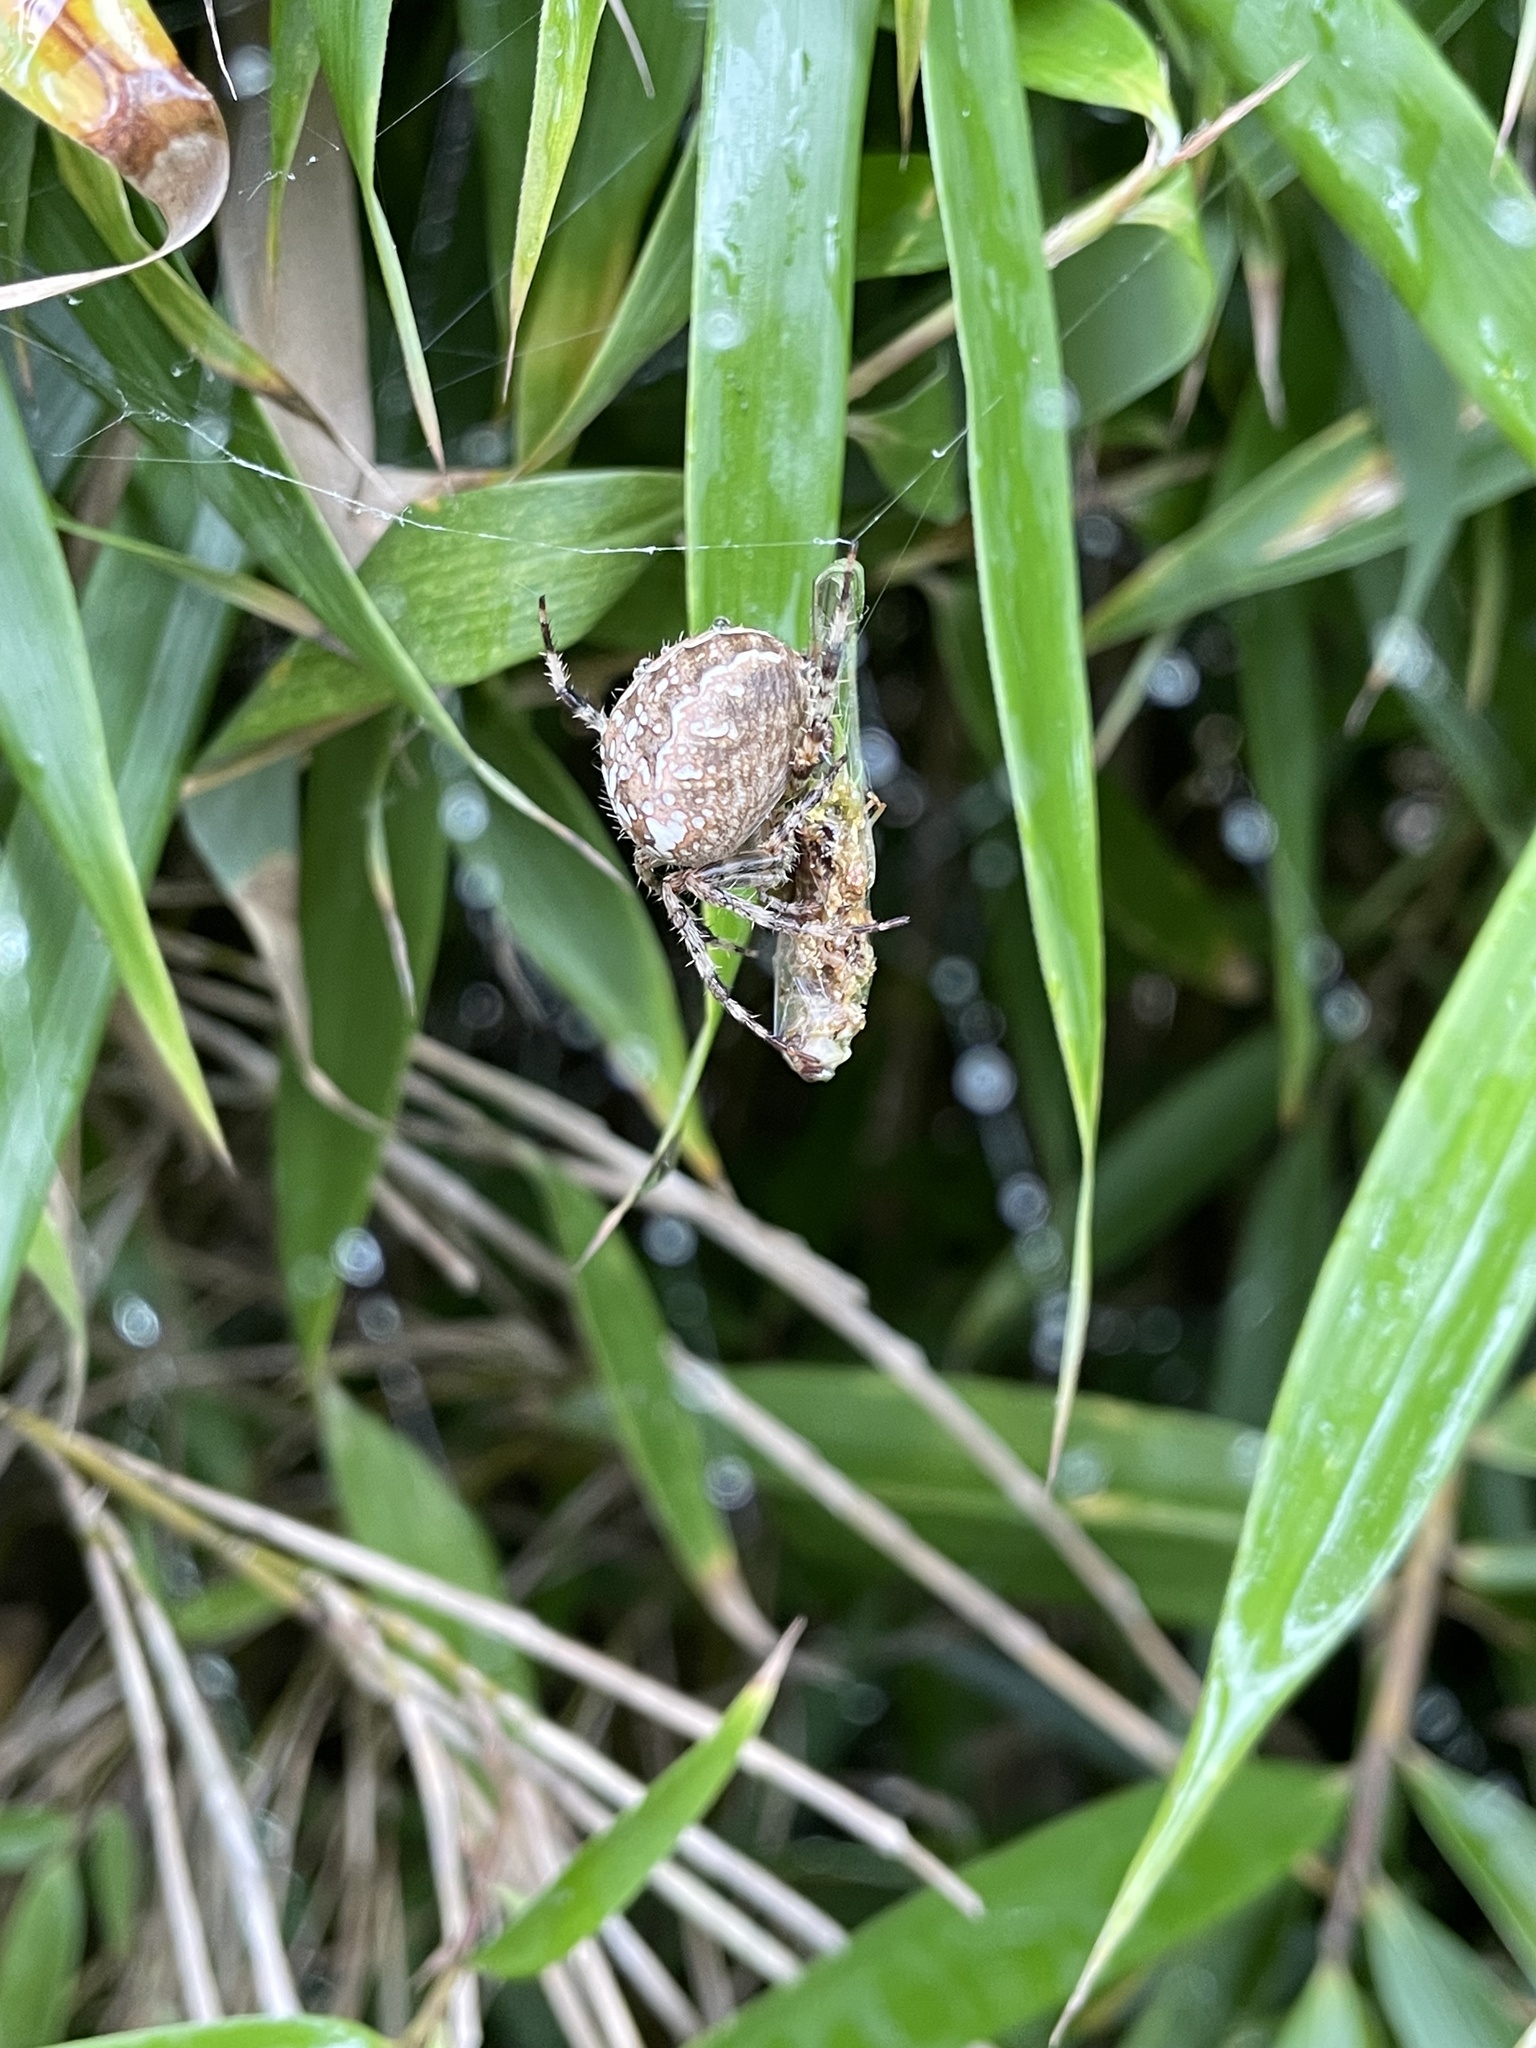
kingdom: Animalia
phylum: Arthropoda
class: Arachnida
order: Araneae
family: Araneidae
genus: Araneus
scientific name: Araneus diadematus
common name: Cross orbweaver
